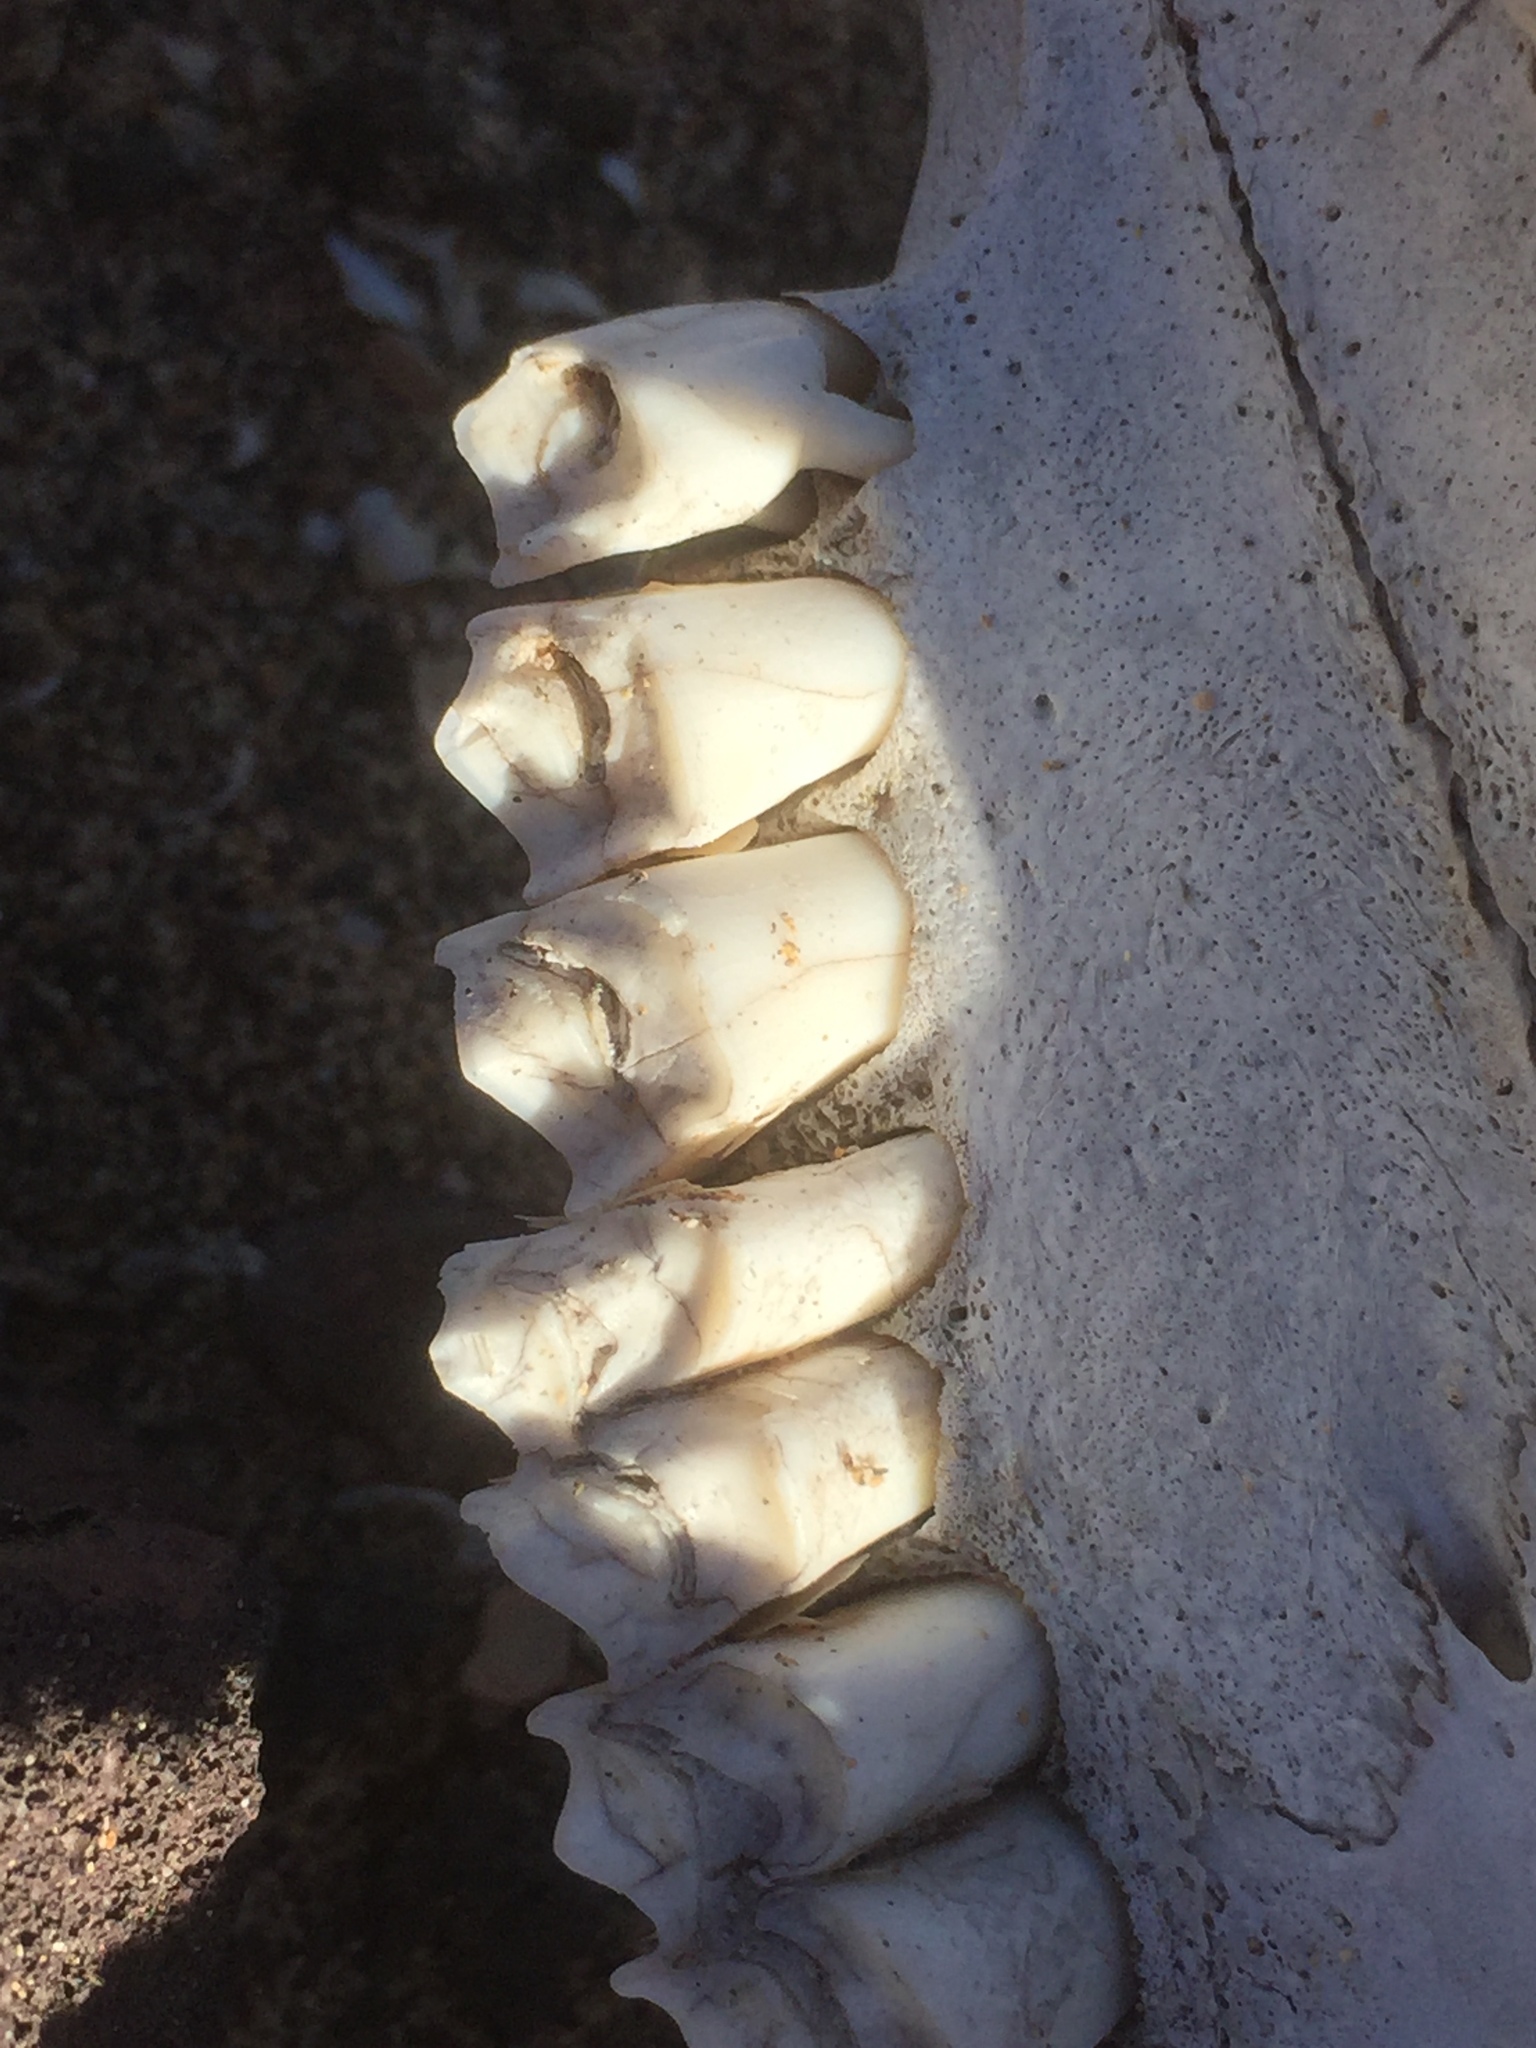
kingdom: Animalia
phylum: Chordata
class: Mammalia
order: Artiodactyla
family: Bovidae
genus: Capra
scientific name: Capra hircus
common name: Domestic goat
